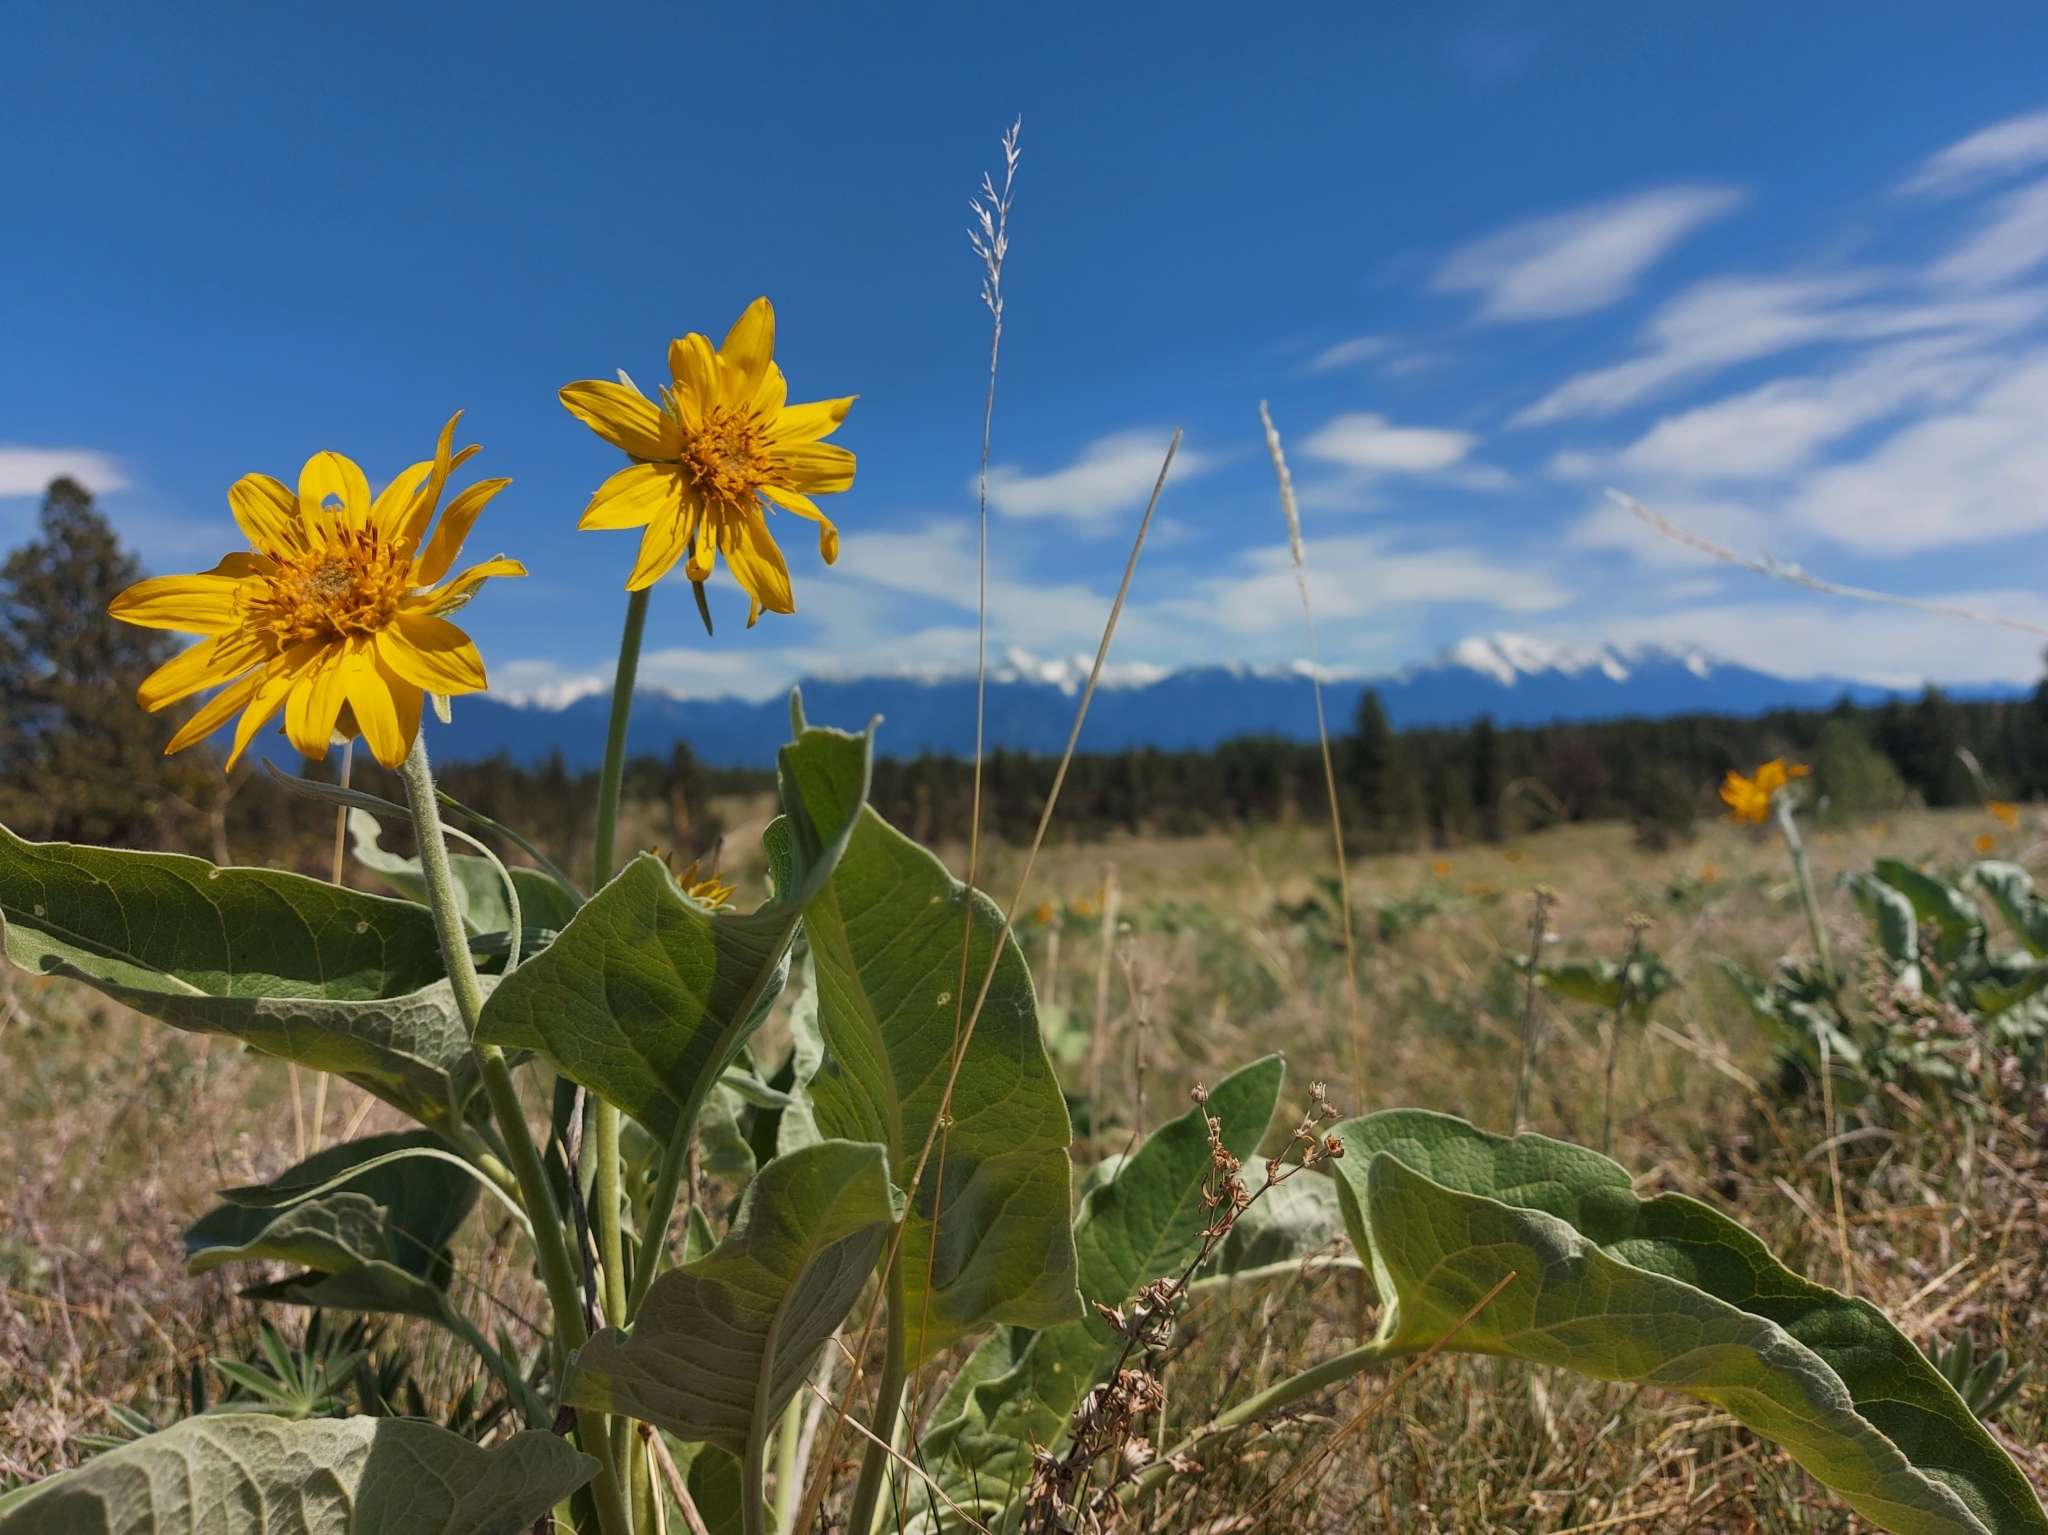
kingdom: Plantae
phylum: Tracheophyta
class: Magnoliopsida
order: Asterales
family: Asteraceae
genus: Wyethia
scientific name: Wyethia sagittata
